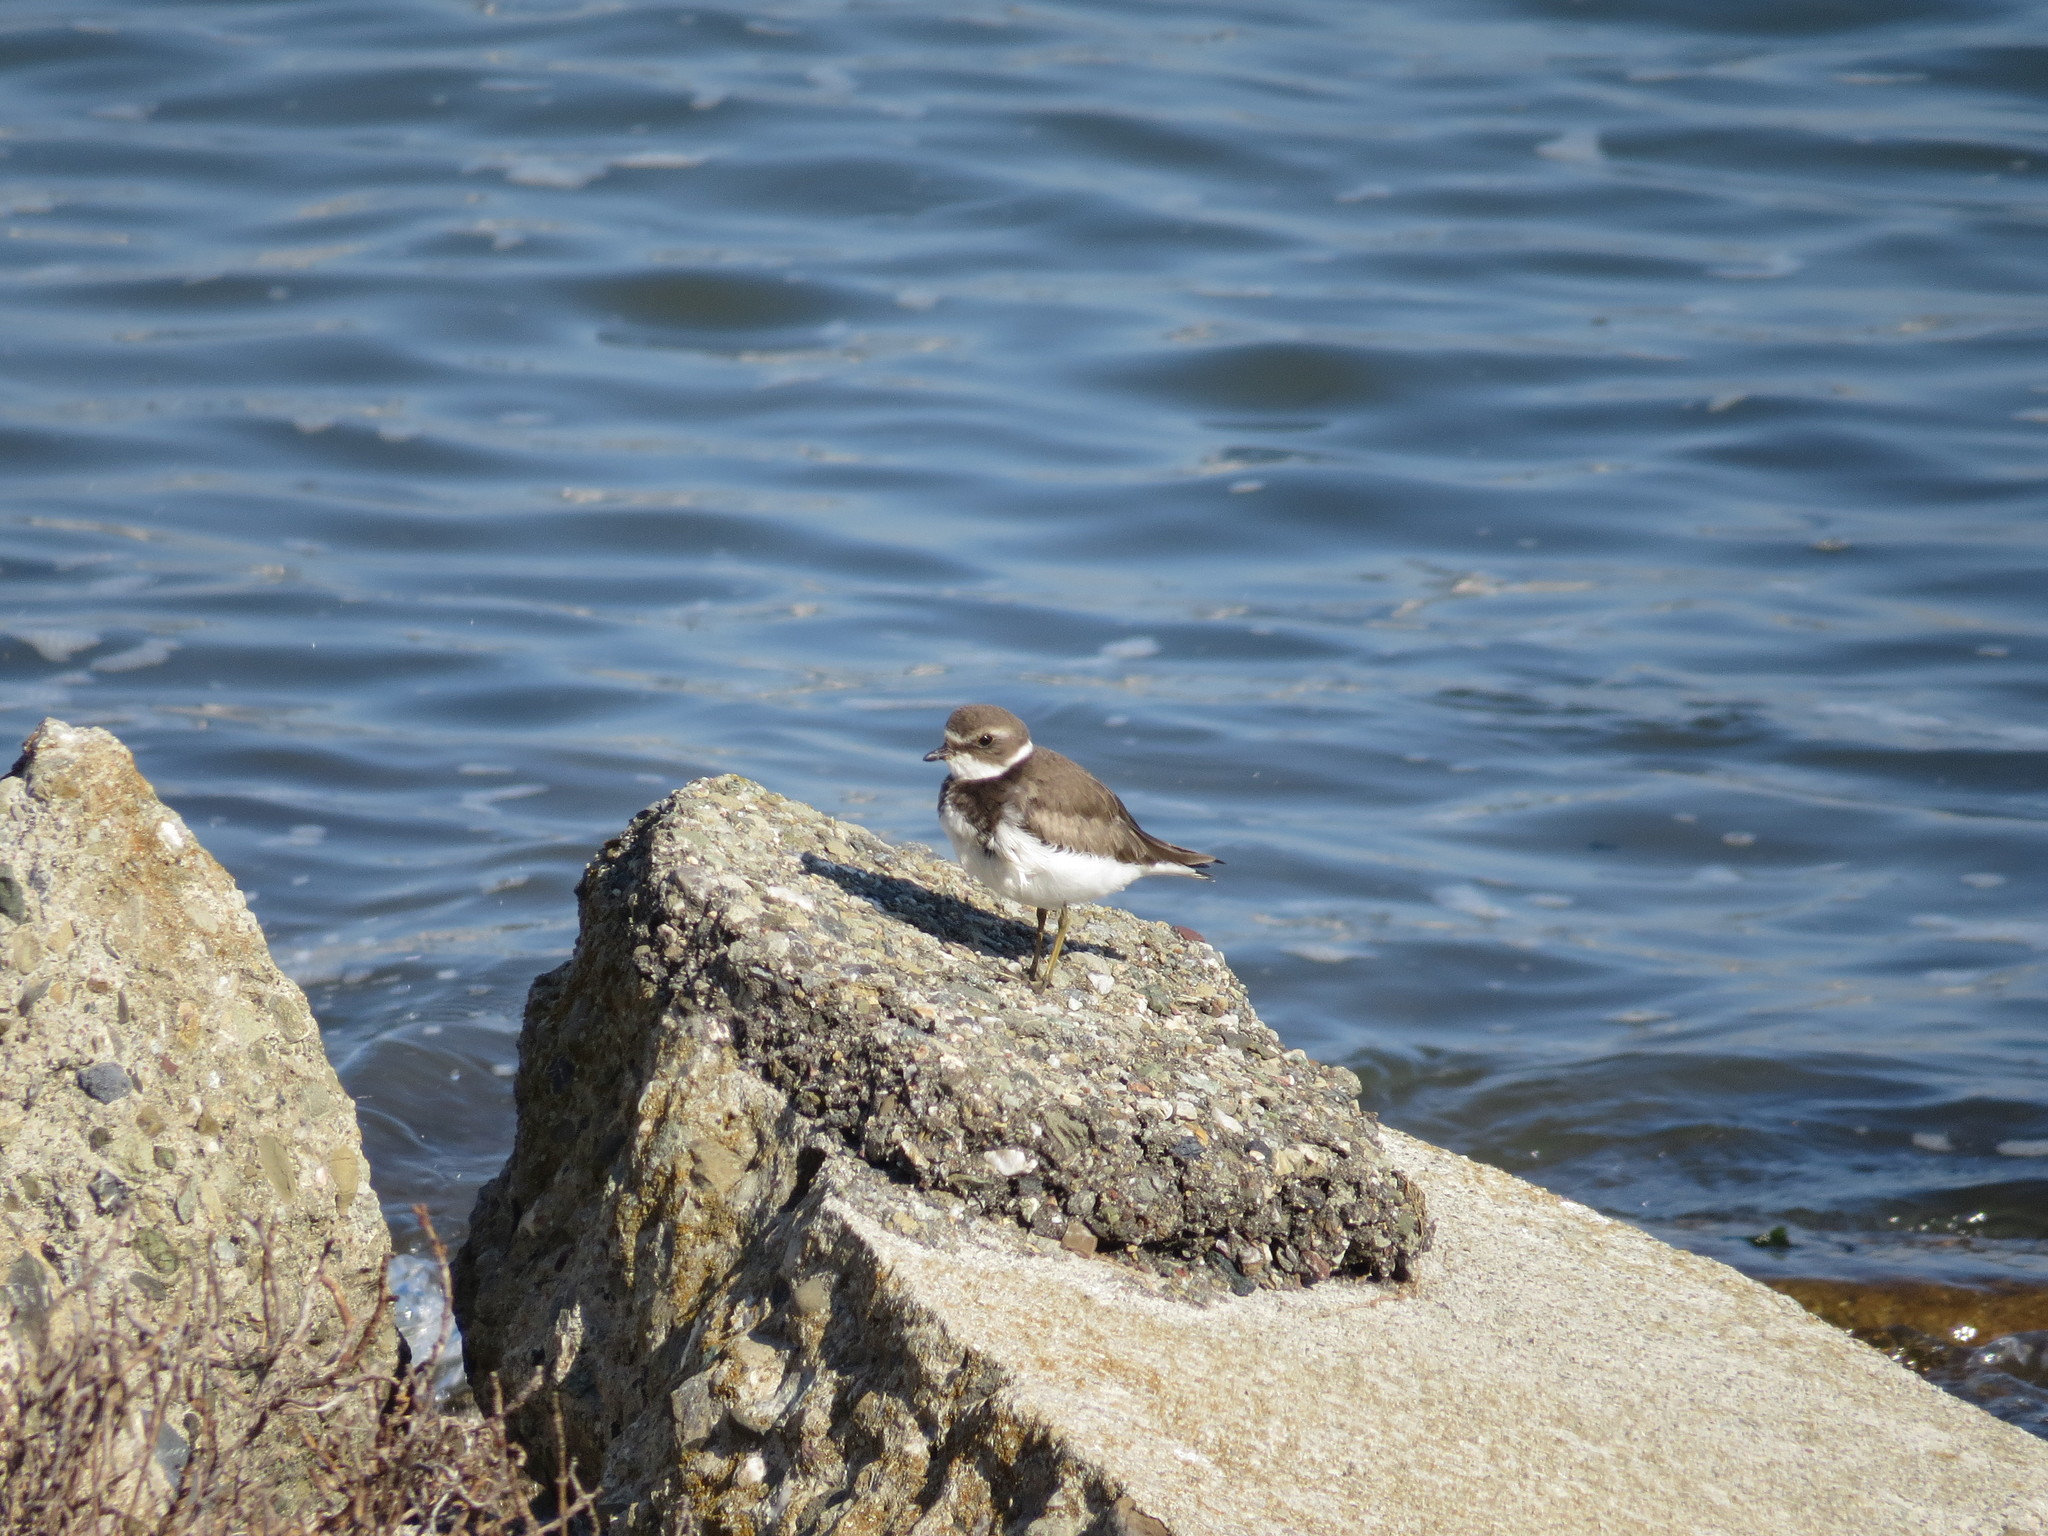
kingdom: Animalia
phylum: Chordata
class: Aves
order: Charadriiformes
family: Charadriidae
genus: Charadrius
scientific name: Charadrius semipalmatus
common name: Semipalmated plover
